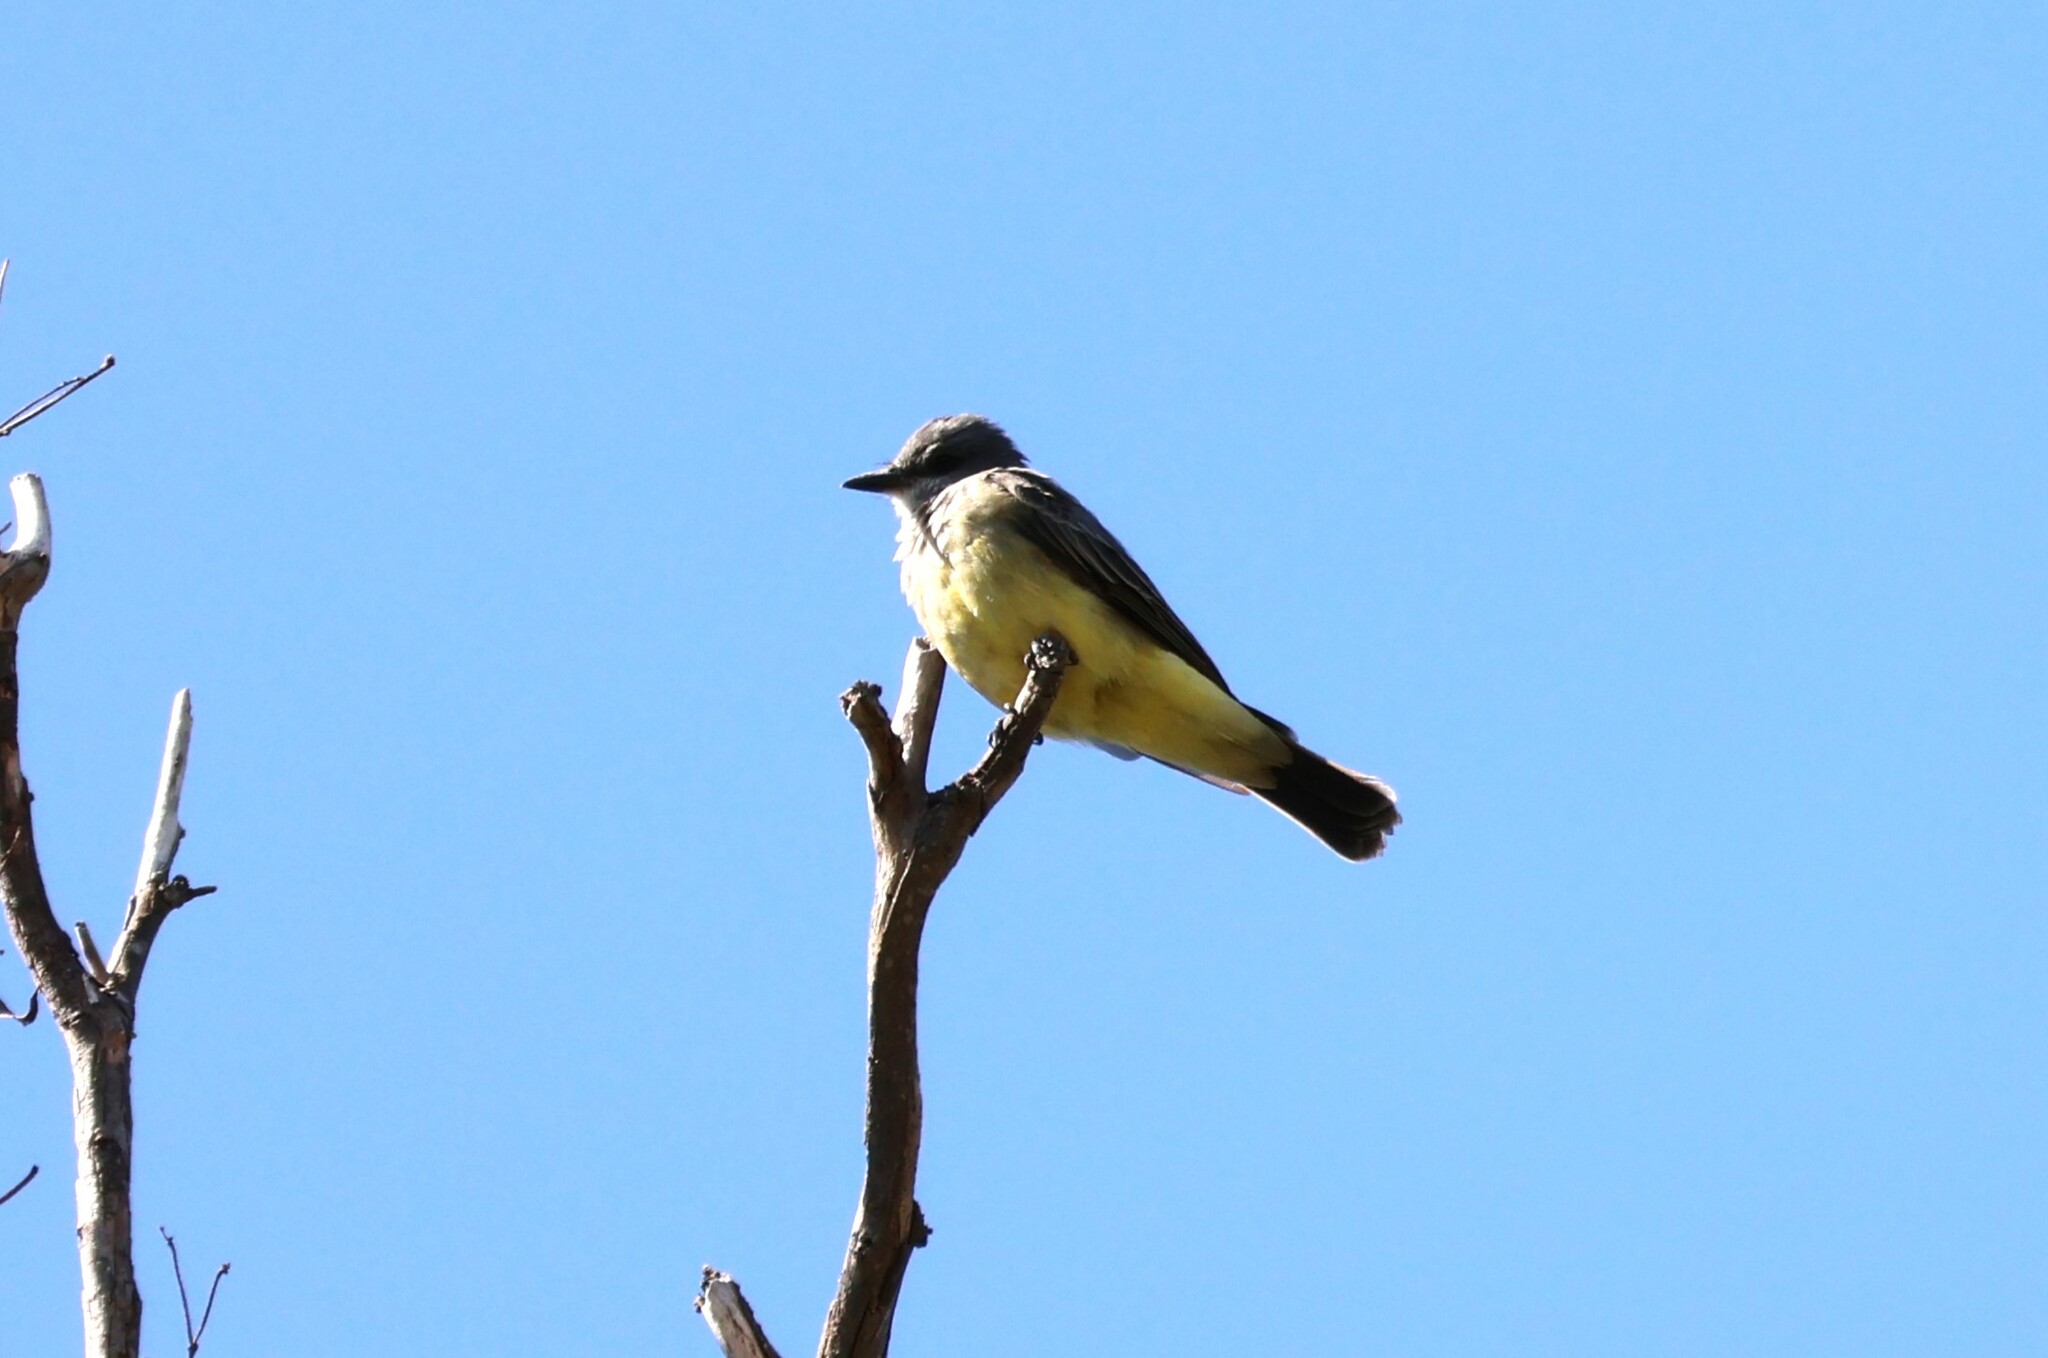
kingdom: Animalia
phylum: Chordata
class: Aves
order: Passeriformes
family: Tyrannidae
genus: Tyrannus
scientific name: Tyrannus vociferans
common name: Cassin's kingbird
